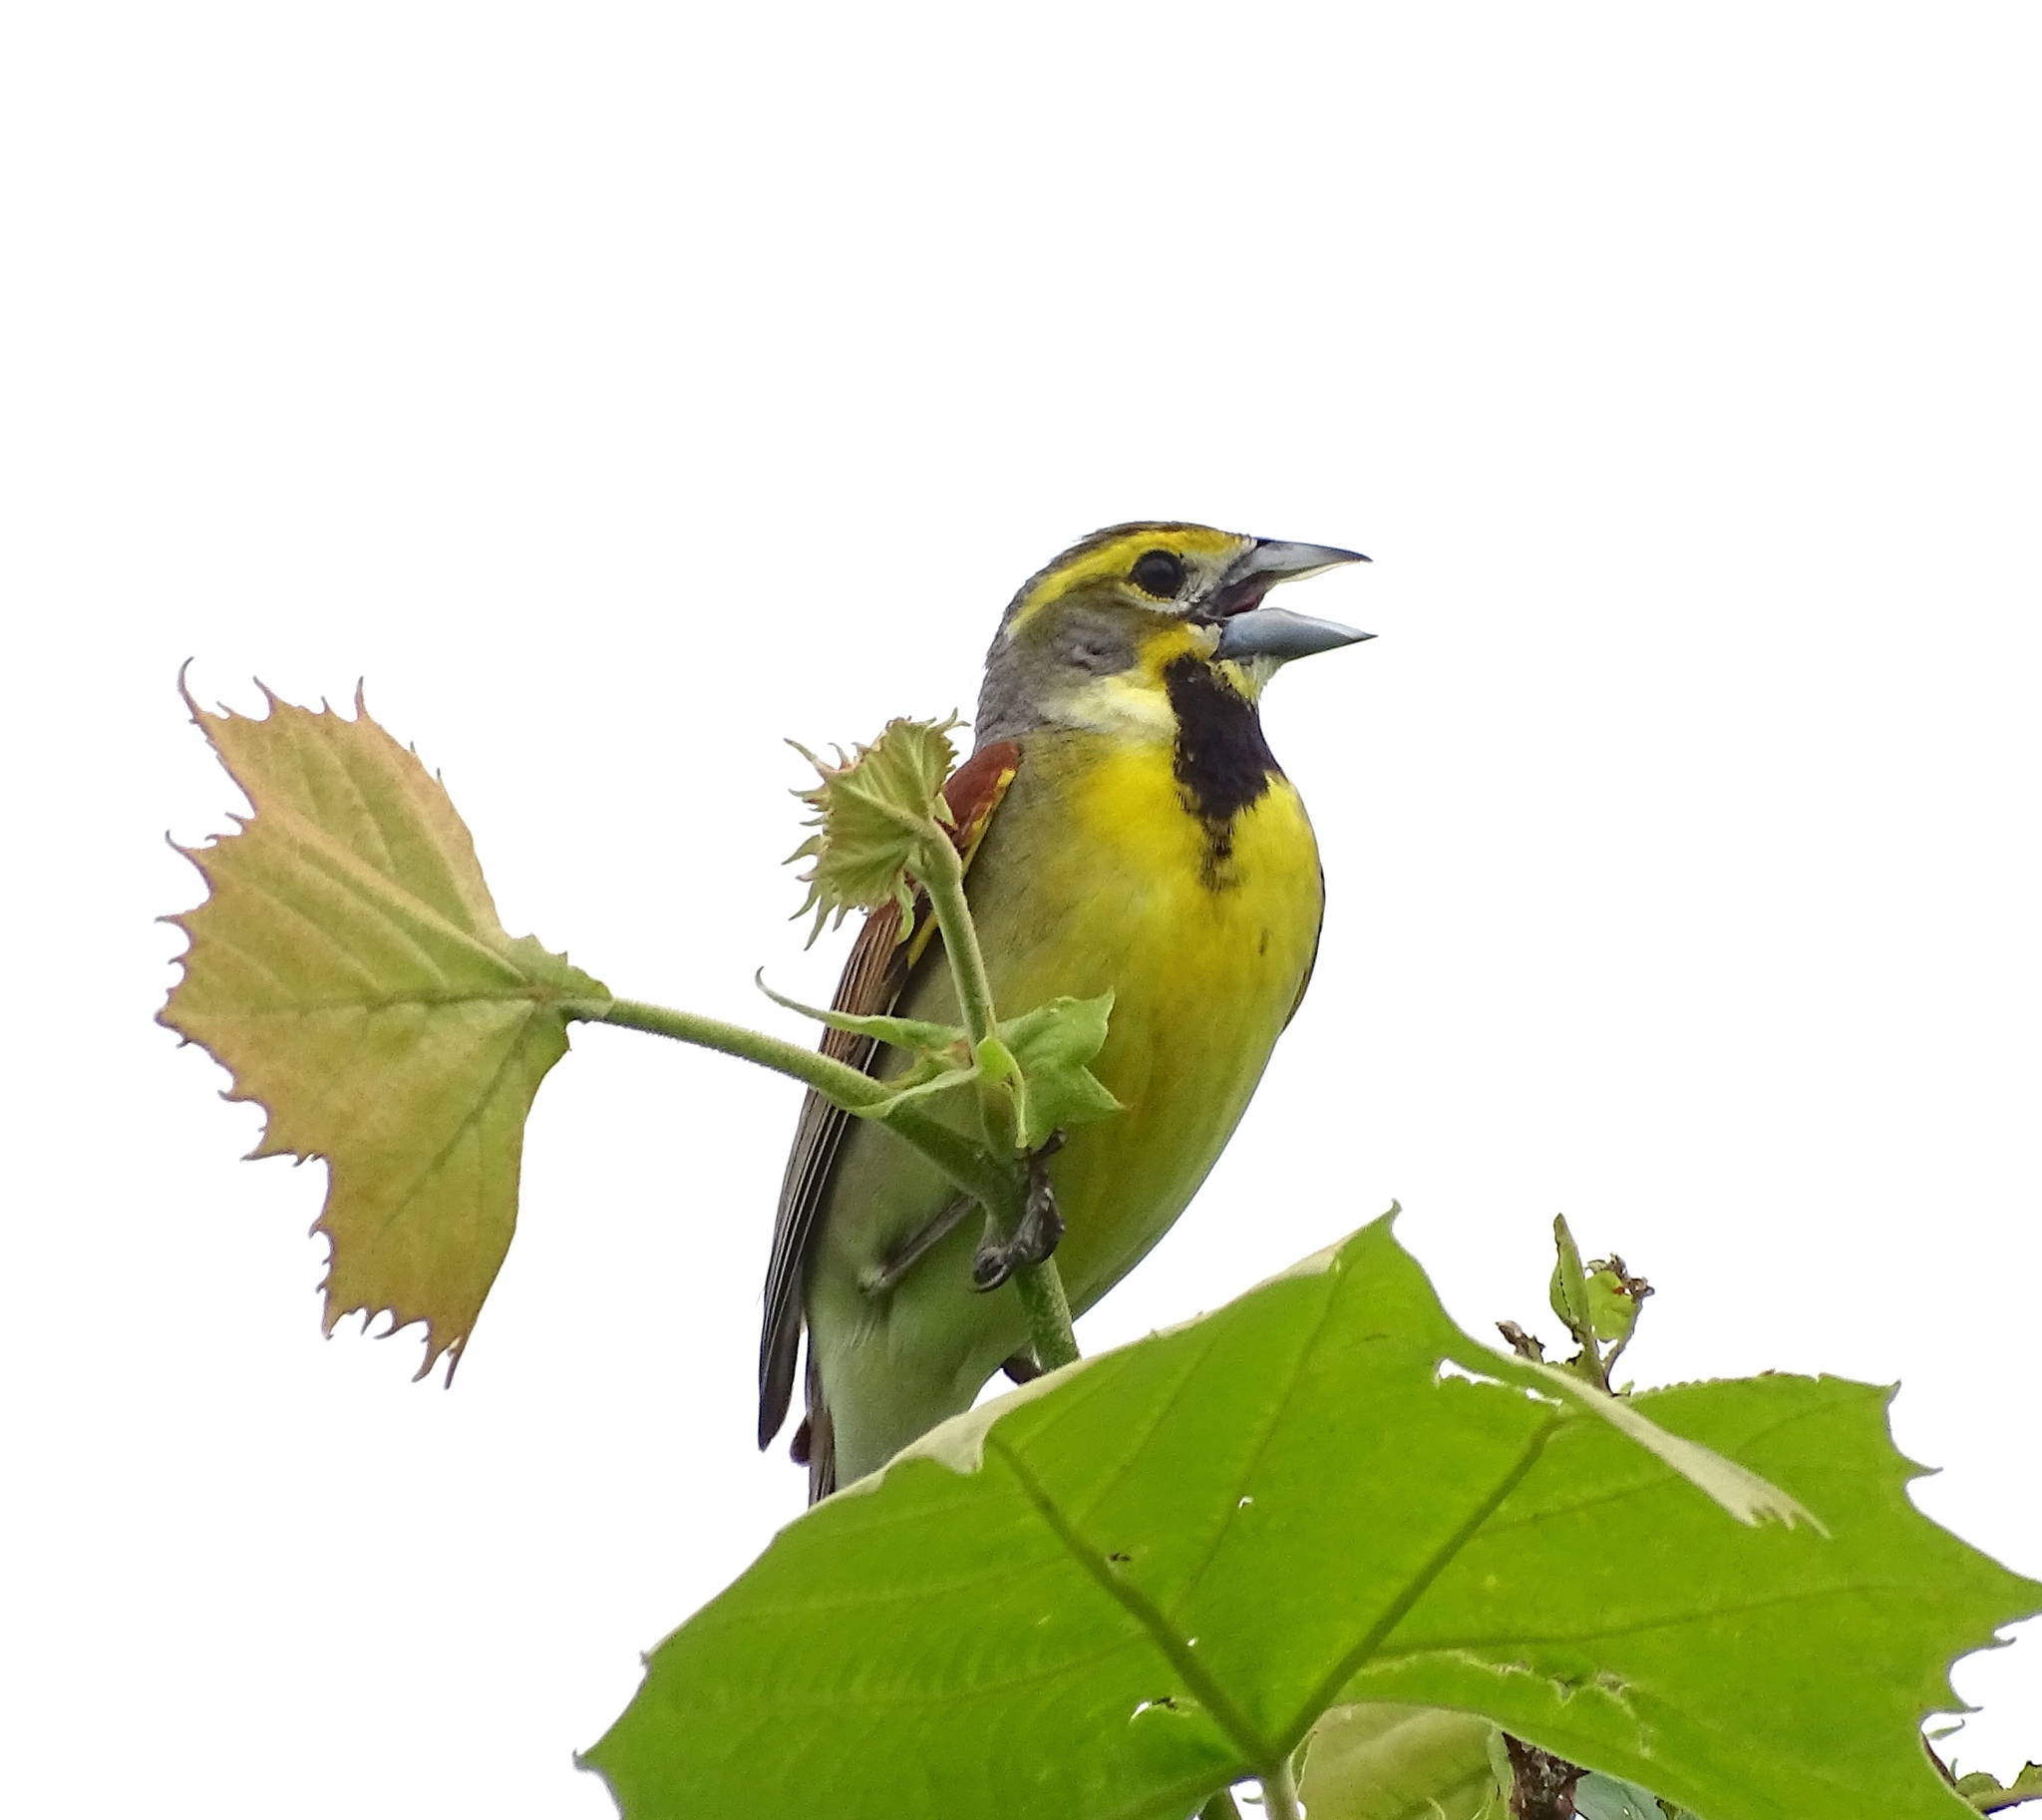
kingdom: Animalia
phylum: Chordata
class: Aves
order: Passeriformes
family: Cardinalidae
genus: Spiza
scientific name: Spiza americana
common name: Dickcissel
